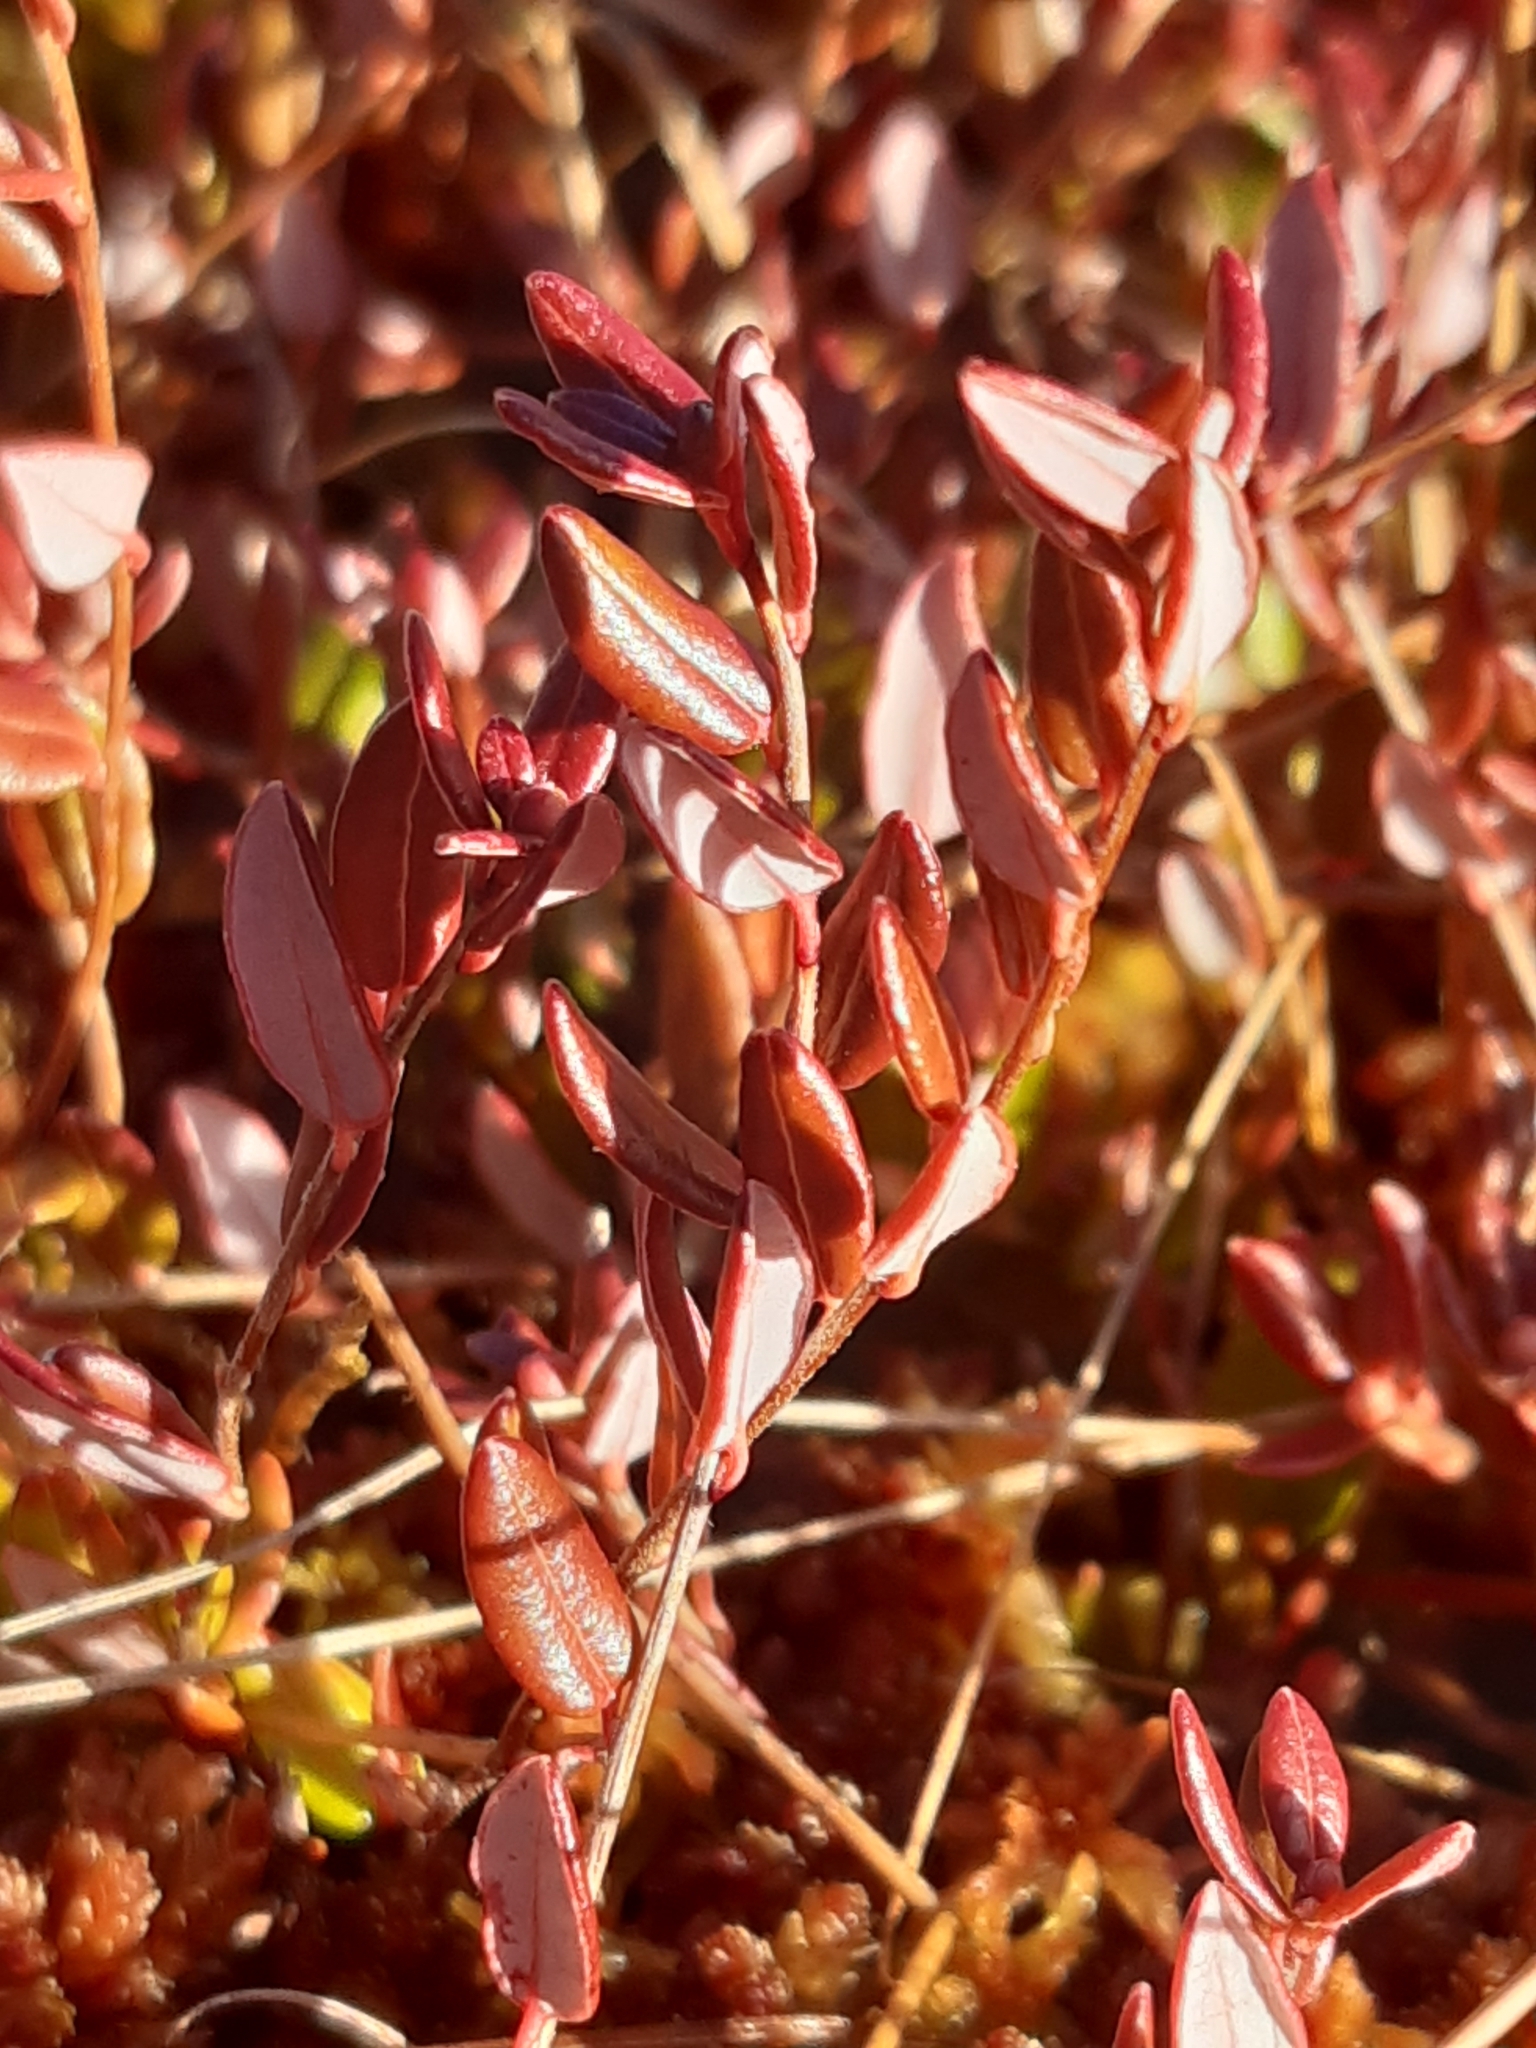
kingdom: Plantae
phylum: Tracheophyta
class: Magnoliopsida
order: Ericales
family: Ericaceae
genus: Vaccinium
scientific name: Vaccinium oxycoccos
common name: Cranberry
